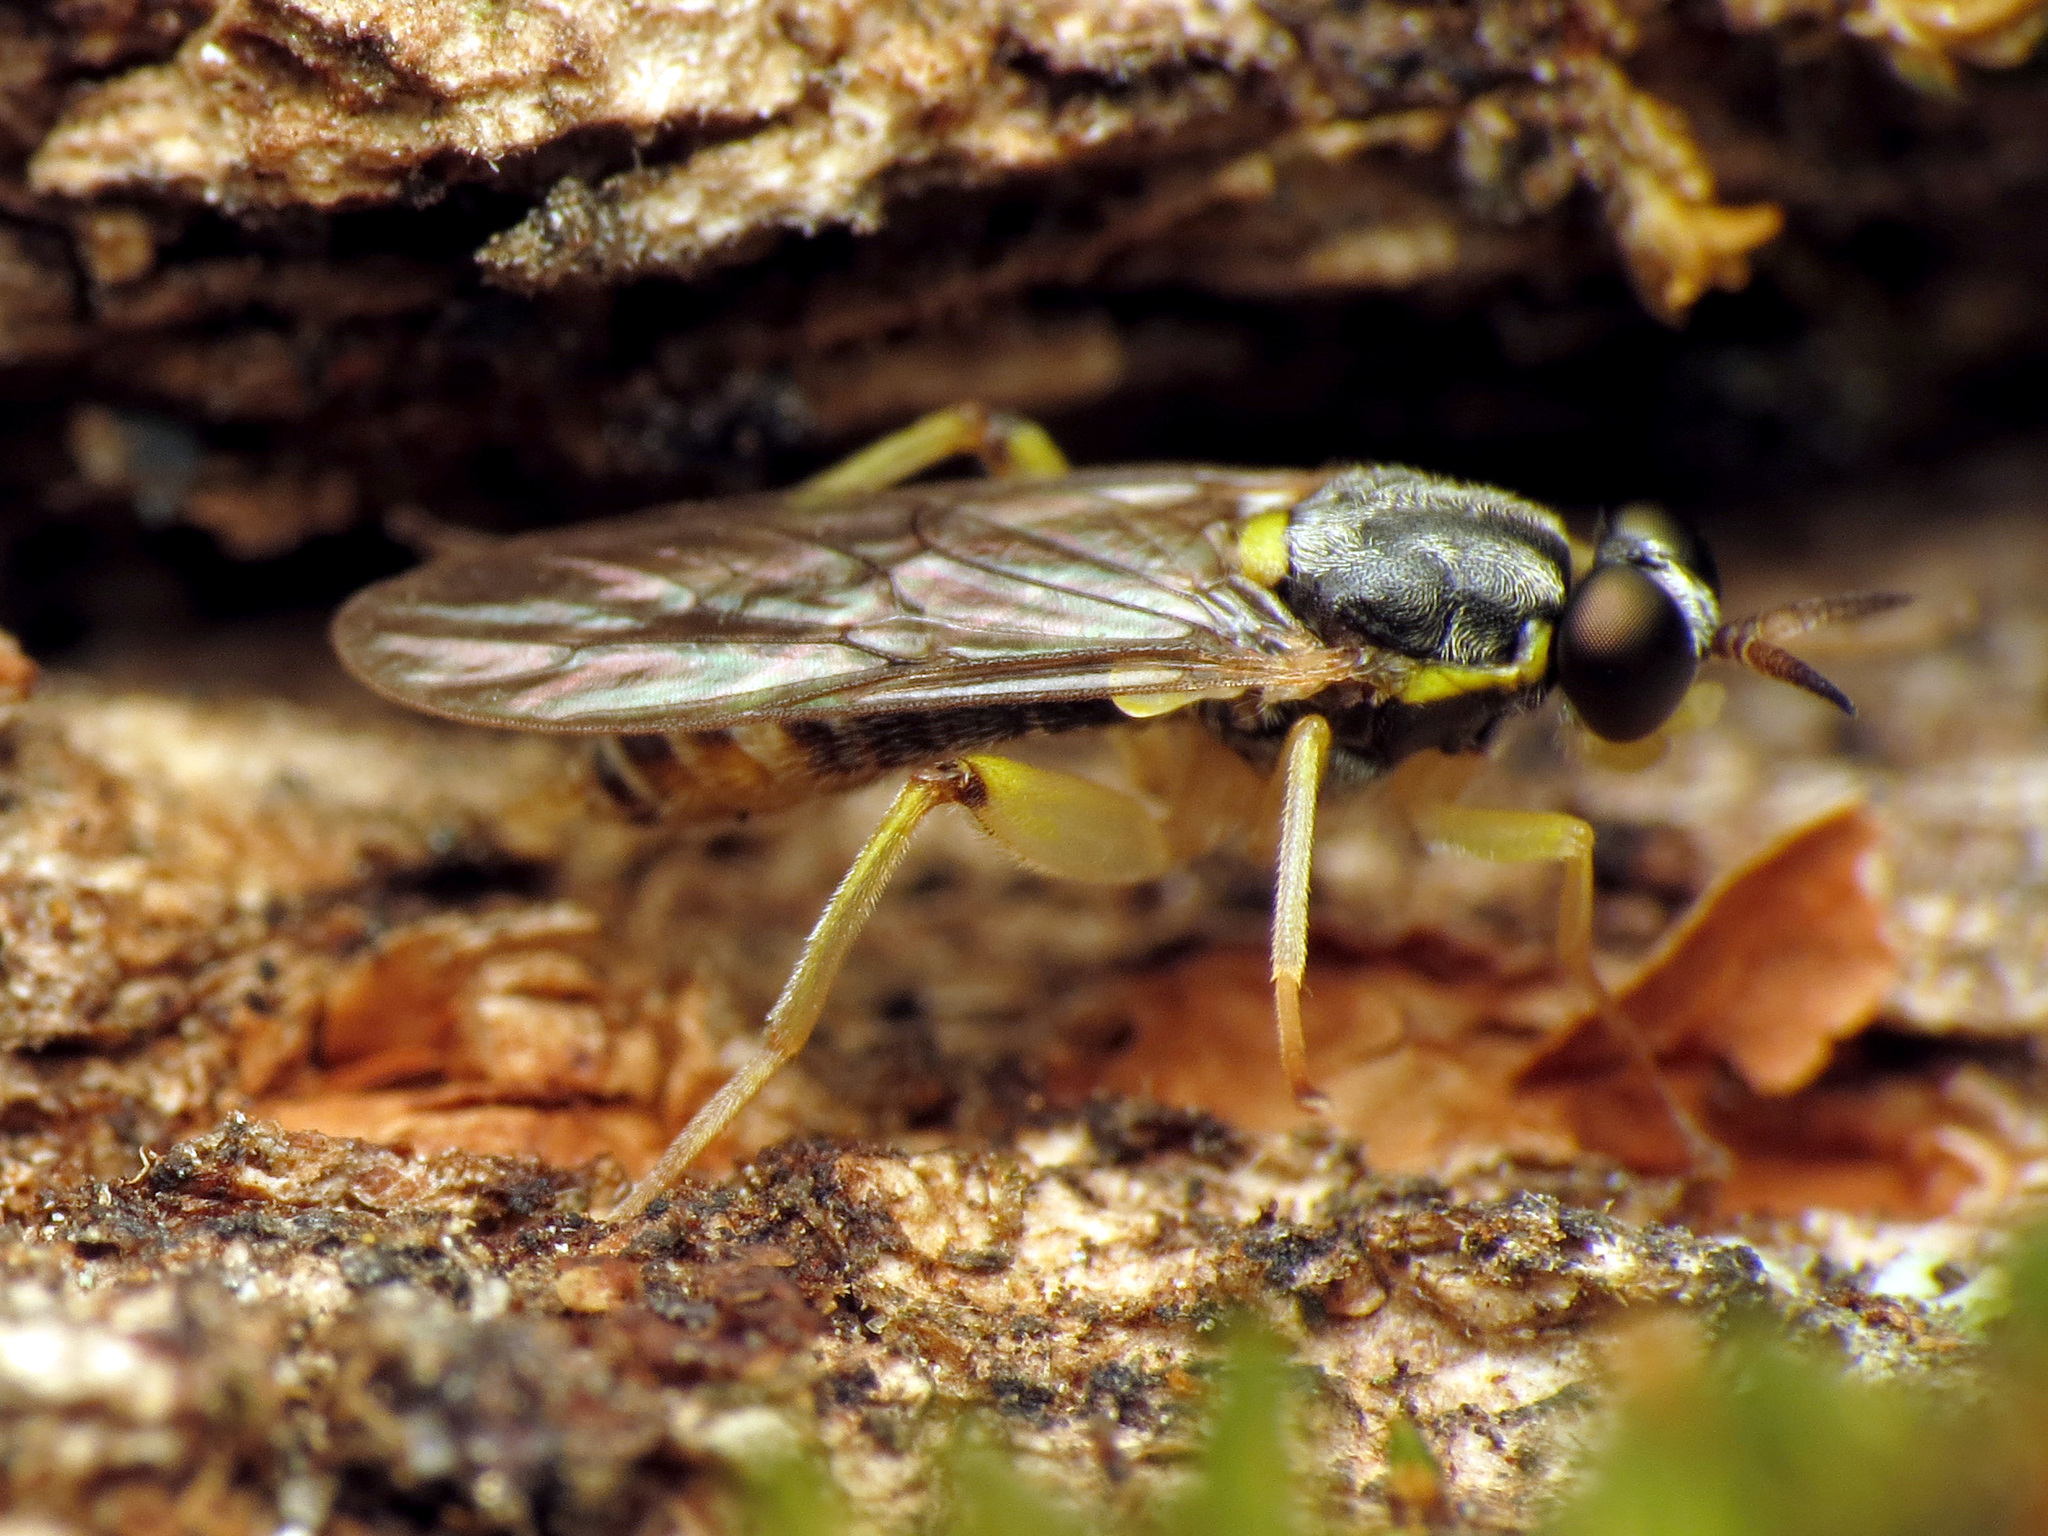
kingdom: Animalia
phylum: Arthropoda
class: Insecta
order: Diptera
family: Xylomyidae
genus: Solva
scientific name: Solva pallipes
